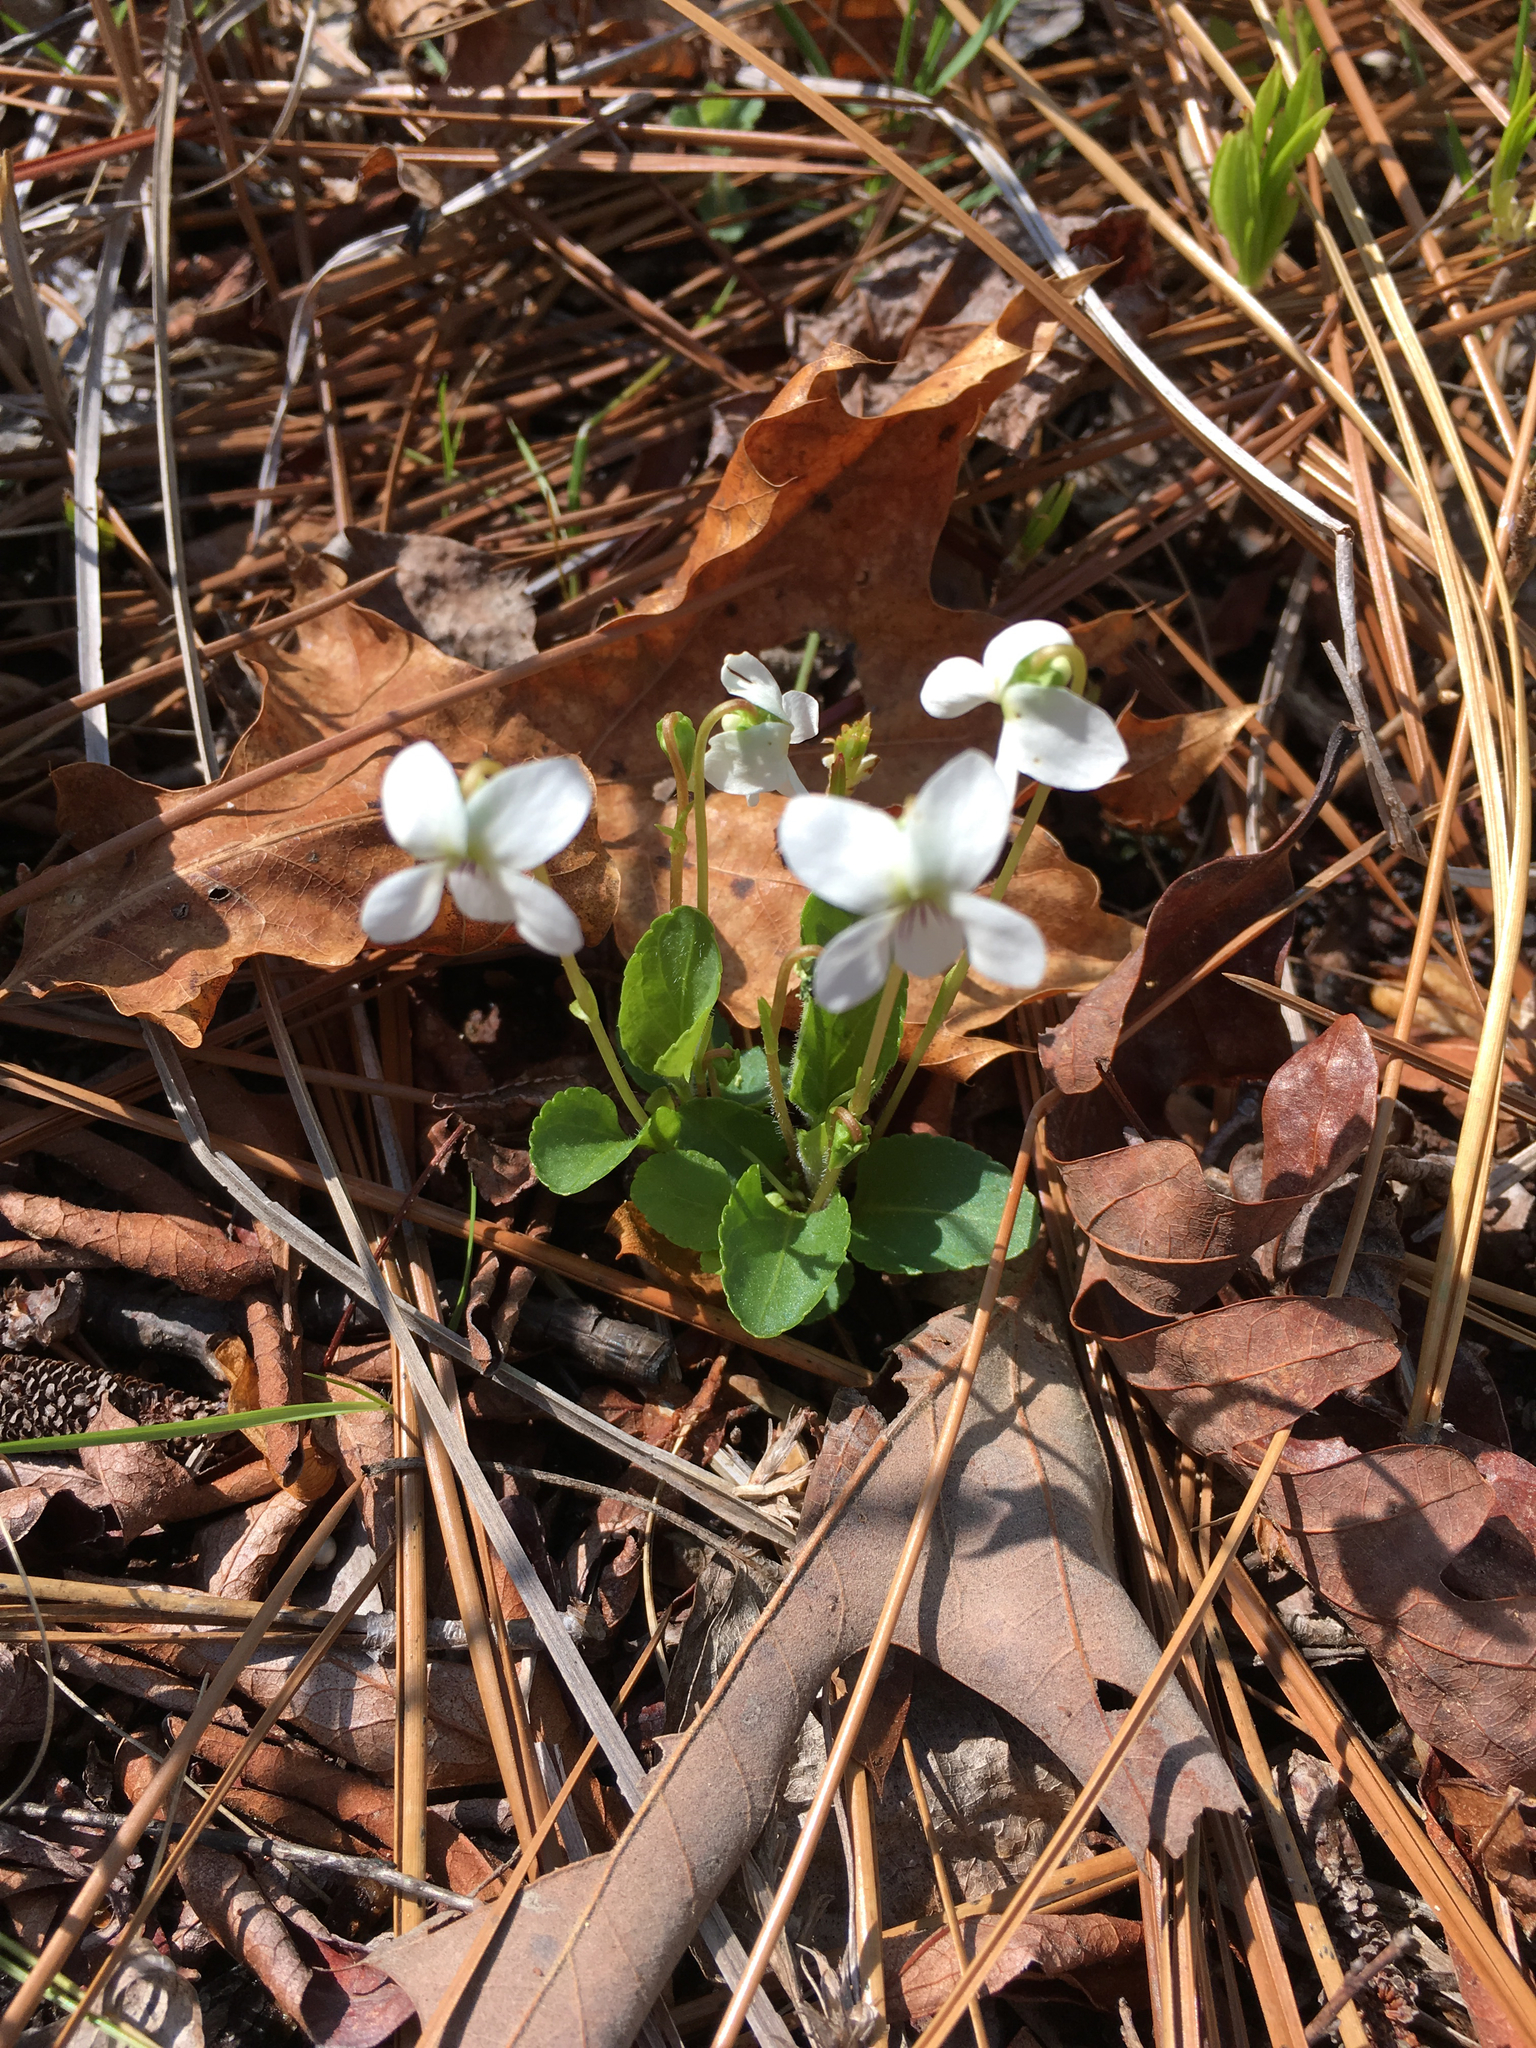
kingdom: Plantae
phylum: Tracheophyta
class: Magnoliopsida
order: Malpighiales
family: Violaceae
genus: Viola
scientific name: Viola primulifolia
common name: Primrose-leaf violet
